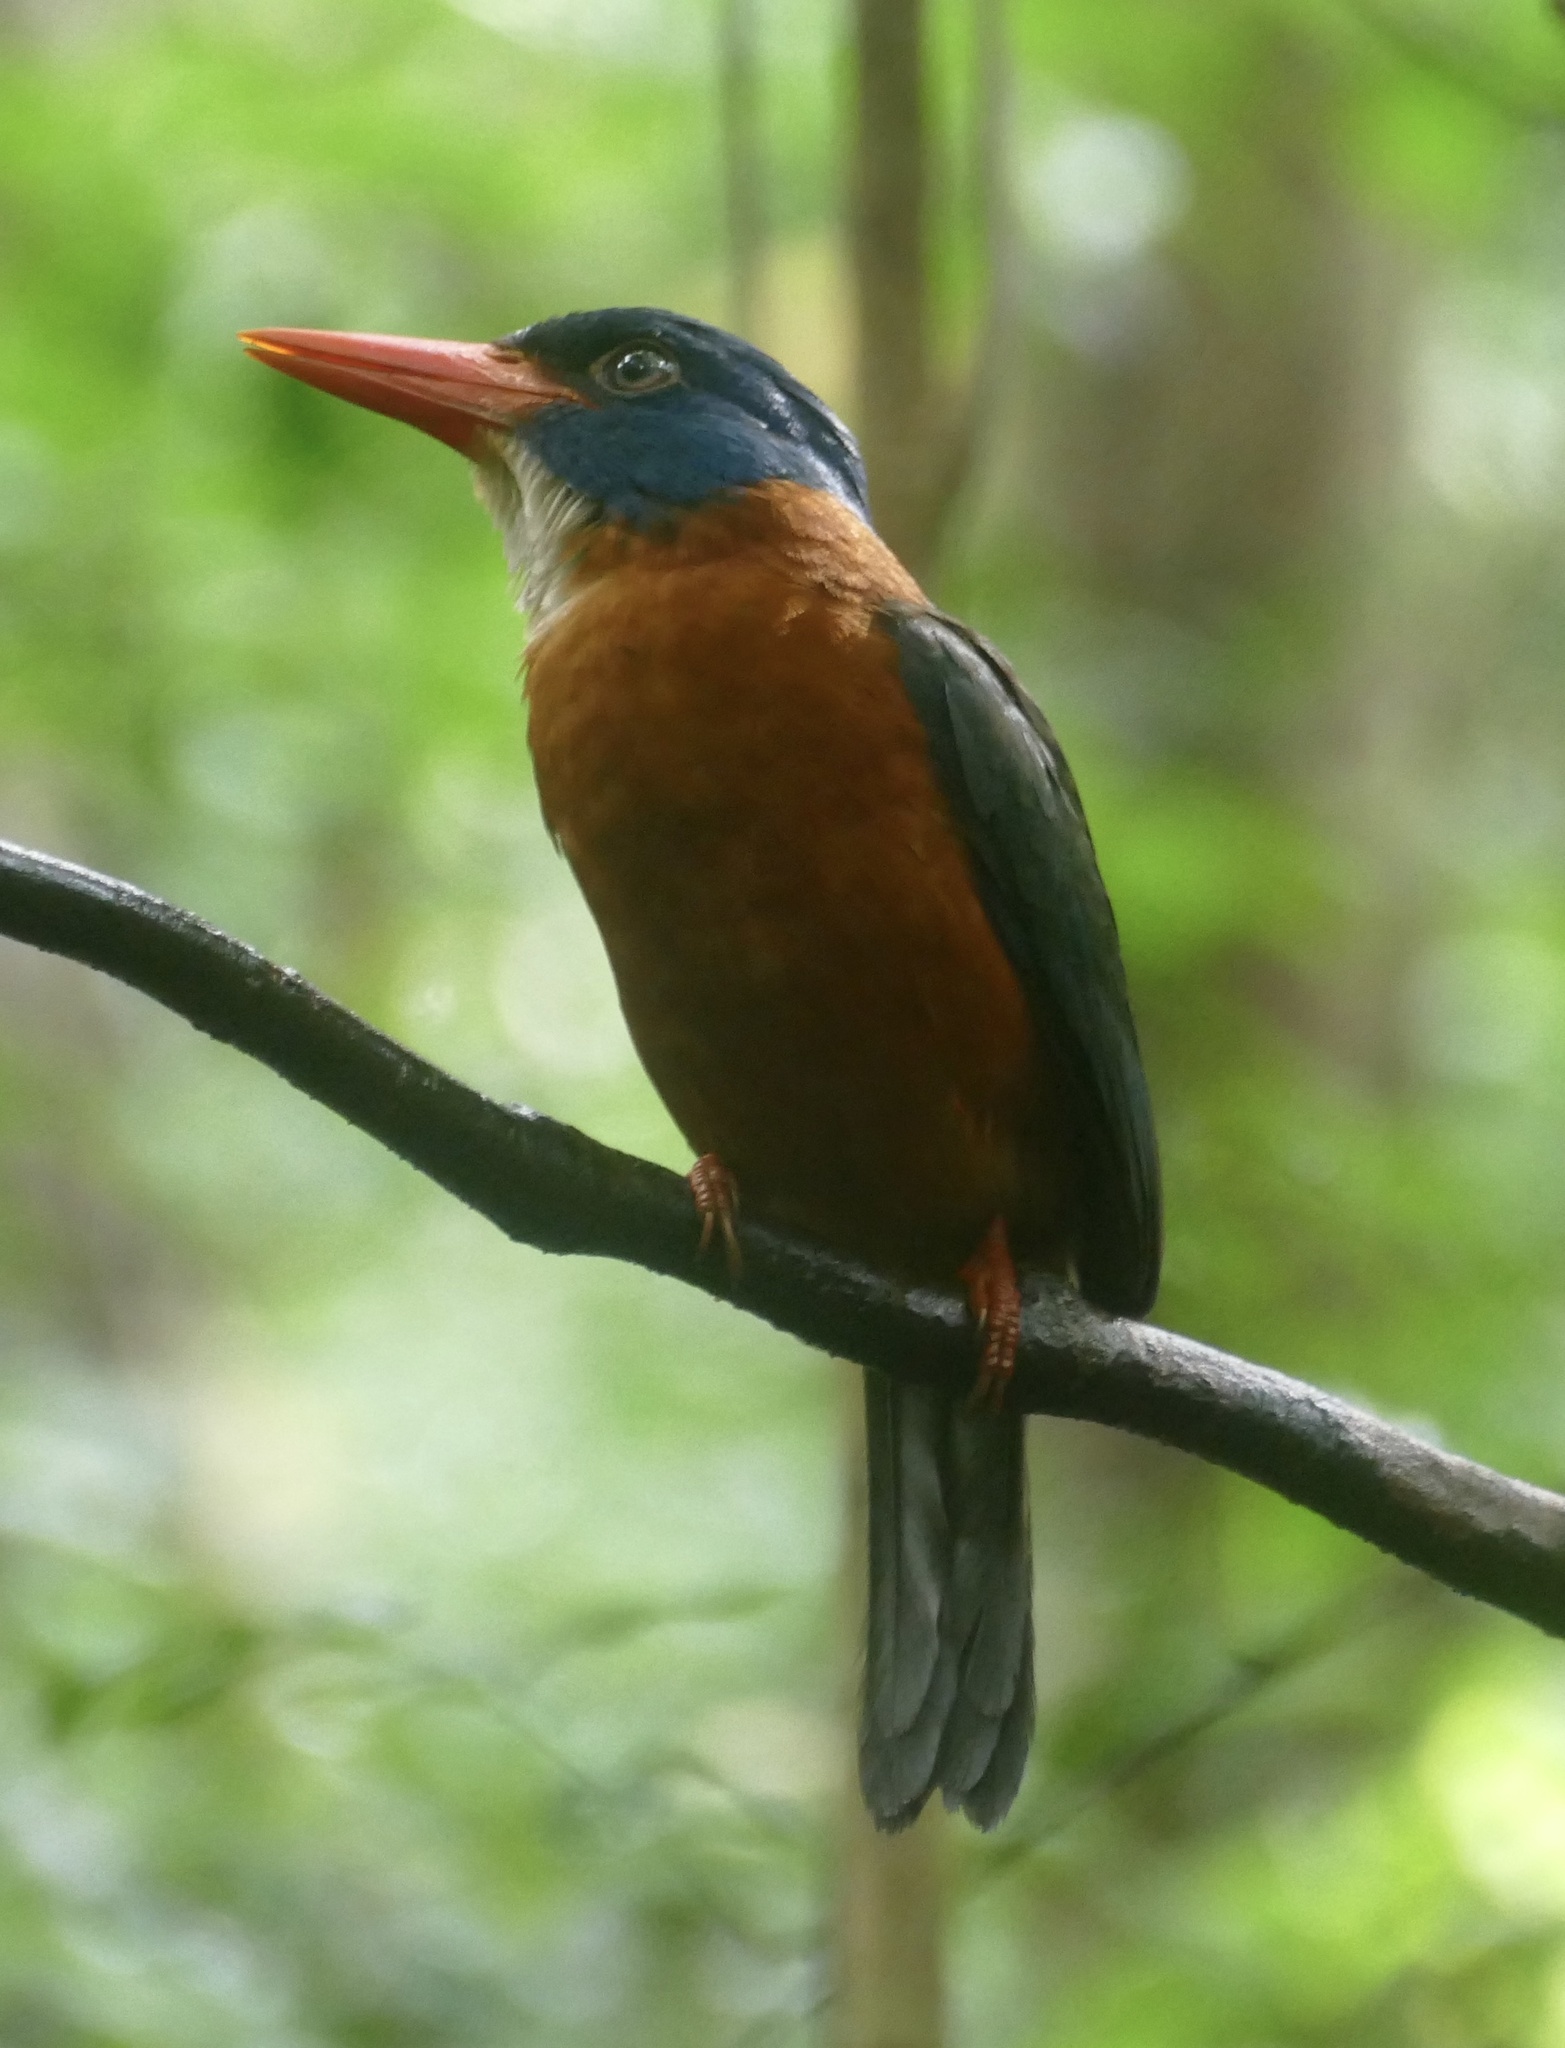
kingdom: Animalia
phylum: Chordata
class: Aves
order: Coraciiformes
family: Alcedinidae
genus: Actenoides
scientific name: Actenoides monachus
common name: Green-backed kingfisher
